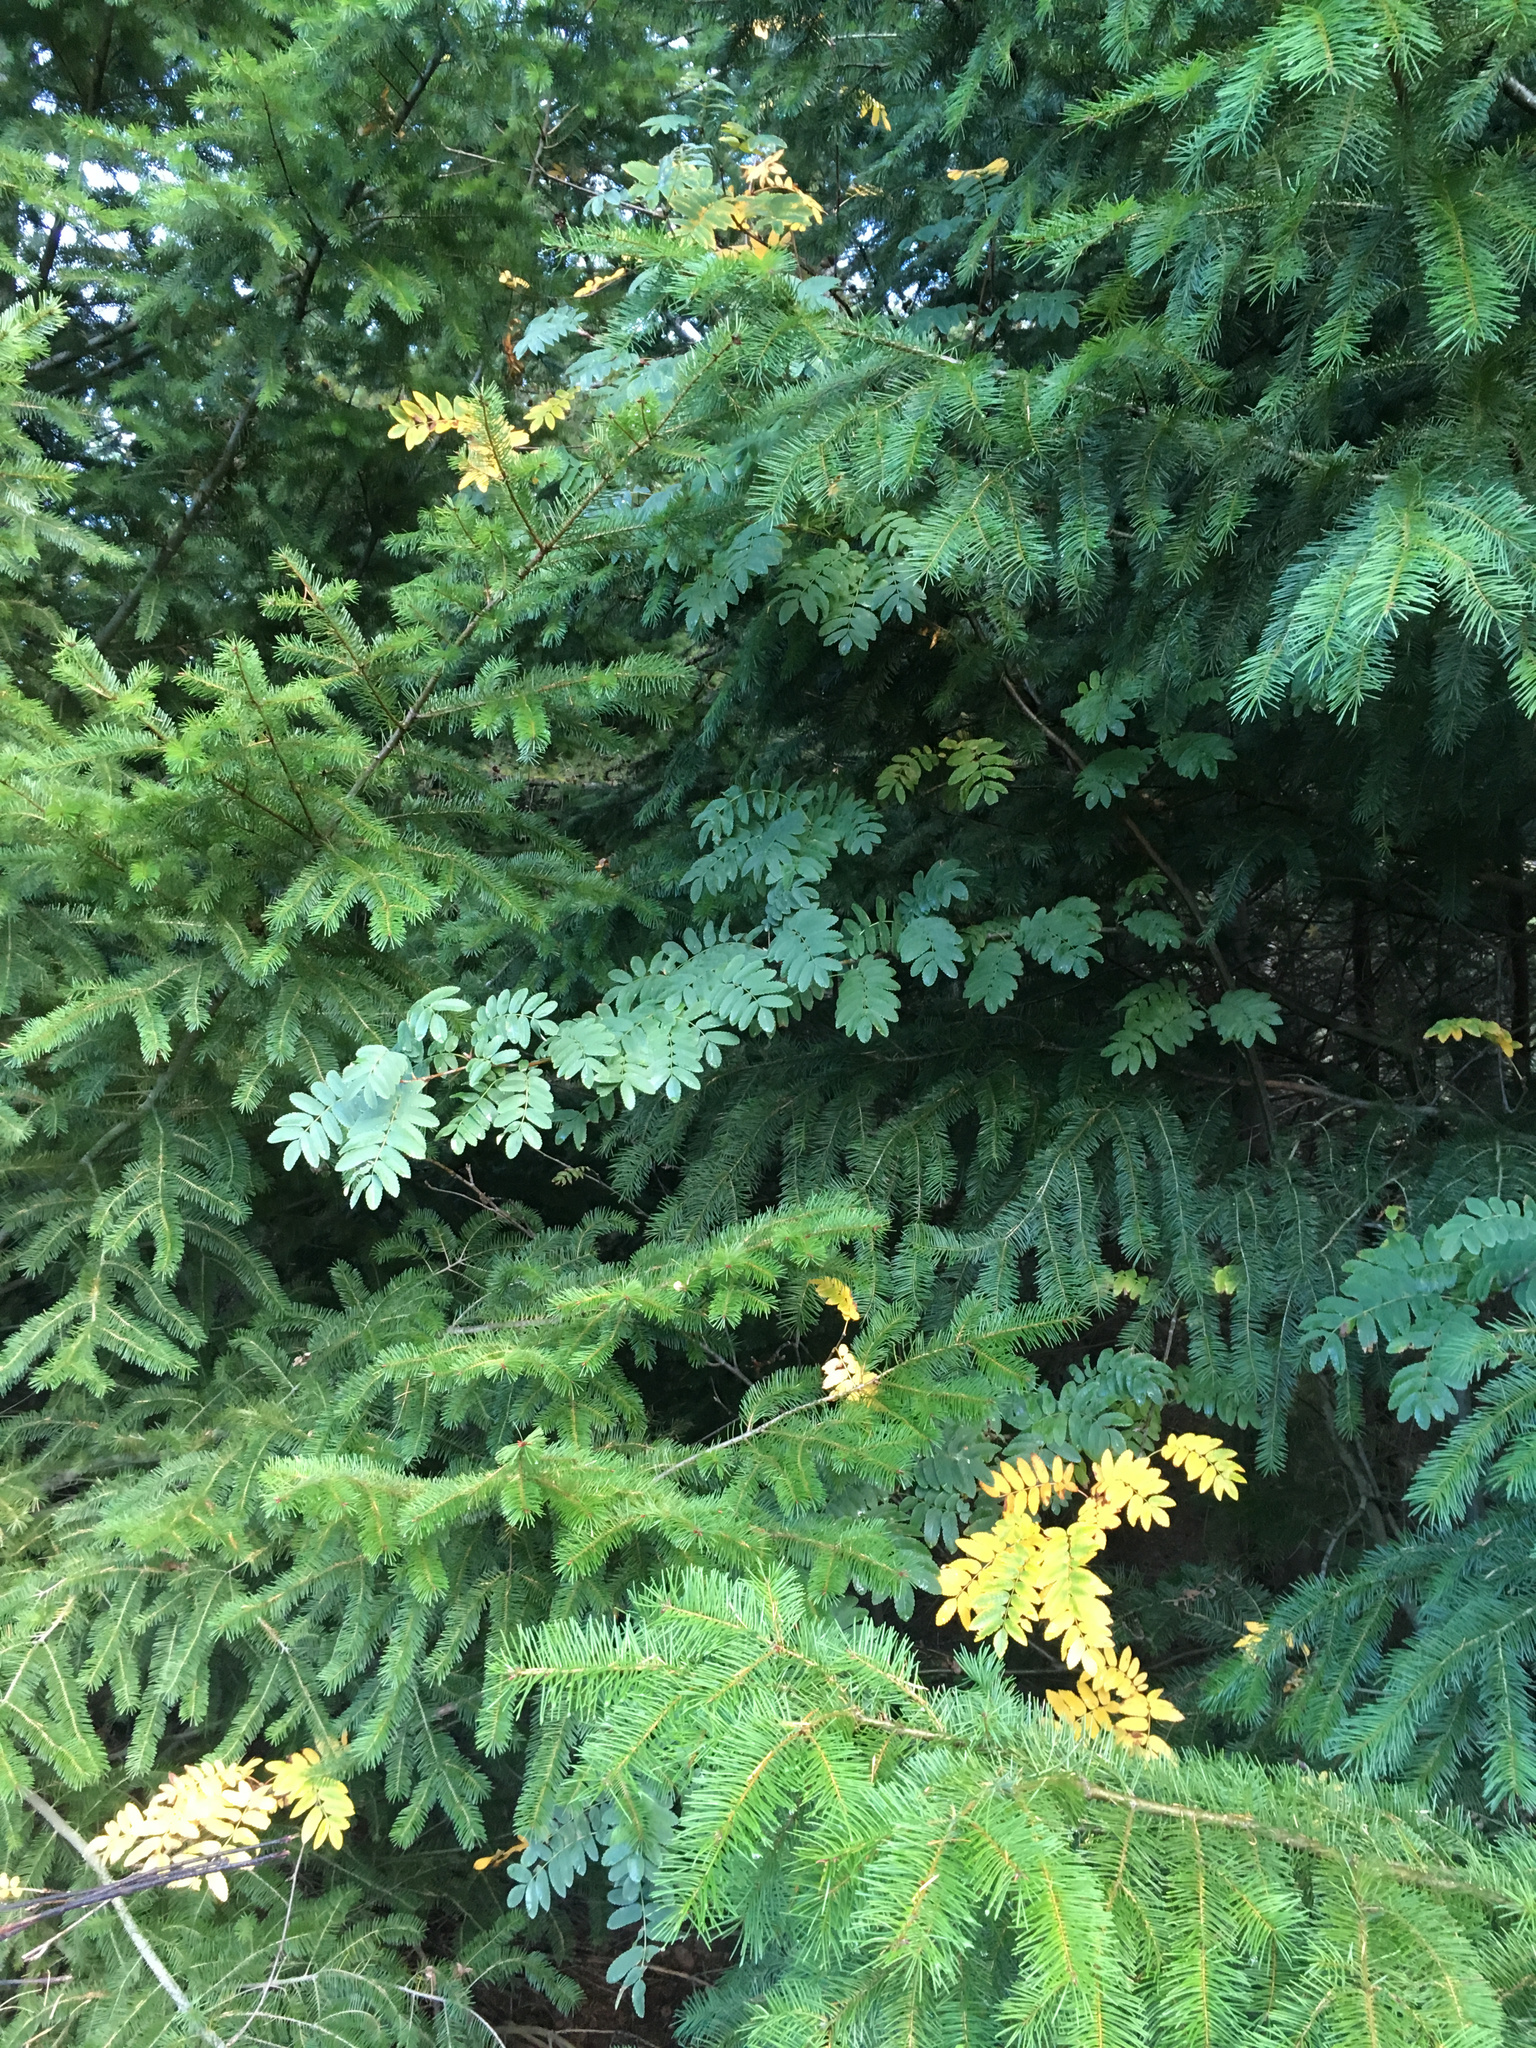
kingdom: Plantae
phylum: Tracheophyta
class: Magnoliopsida
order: Rosales
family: Rosaceae
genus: Sorbus
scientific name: Sorbus aucuparia
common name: Rowan
